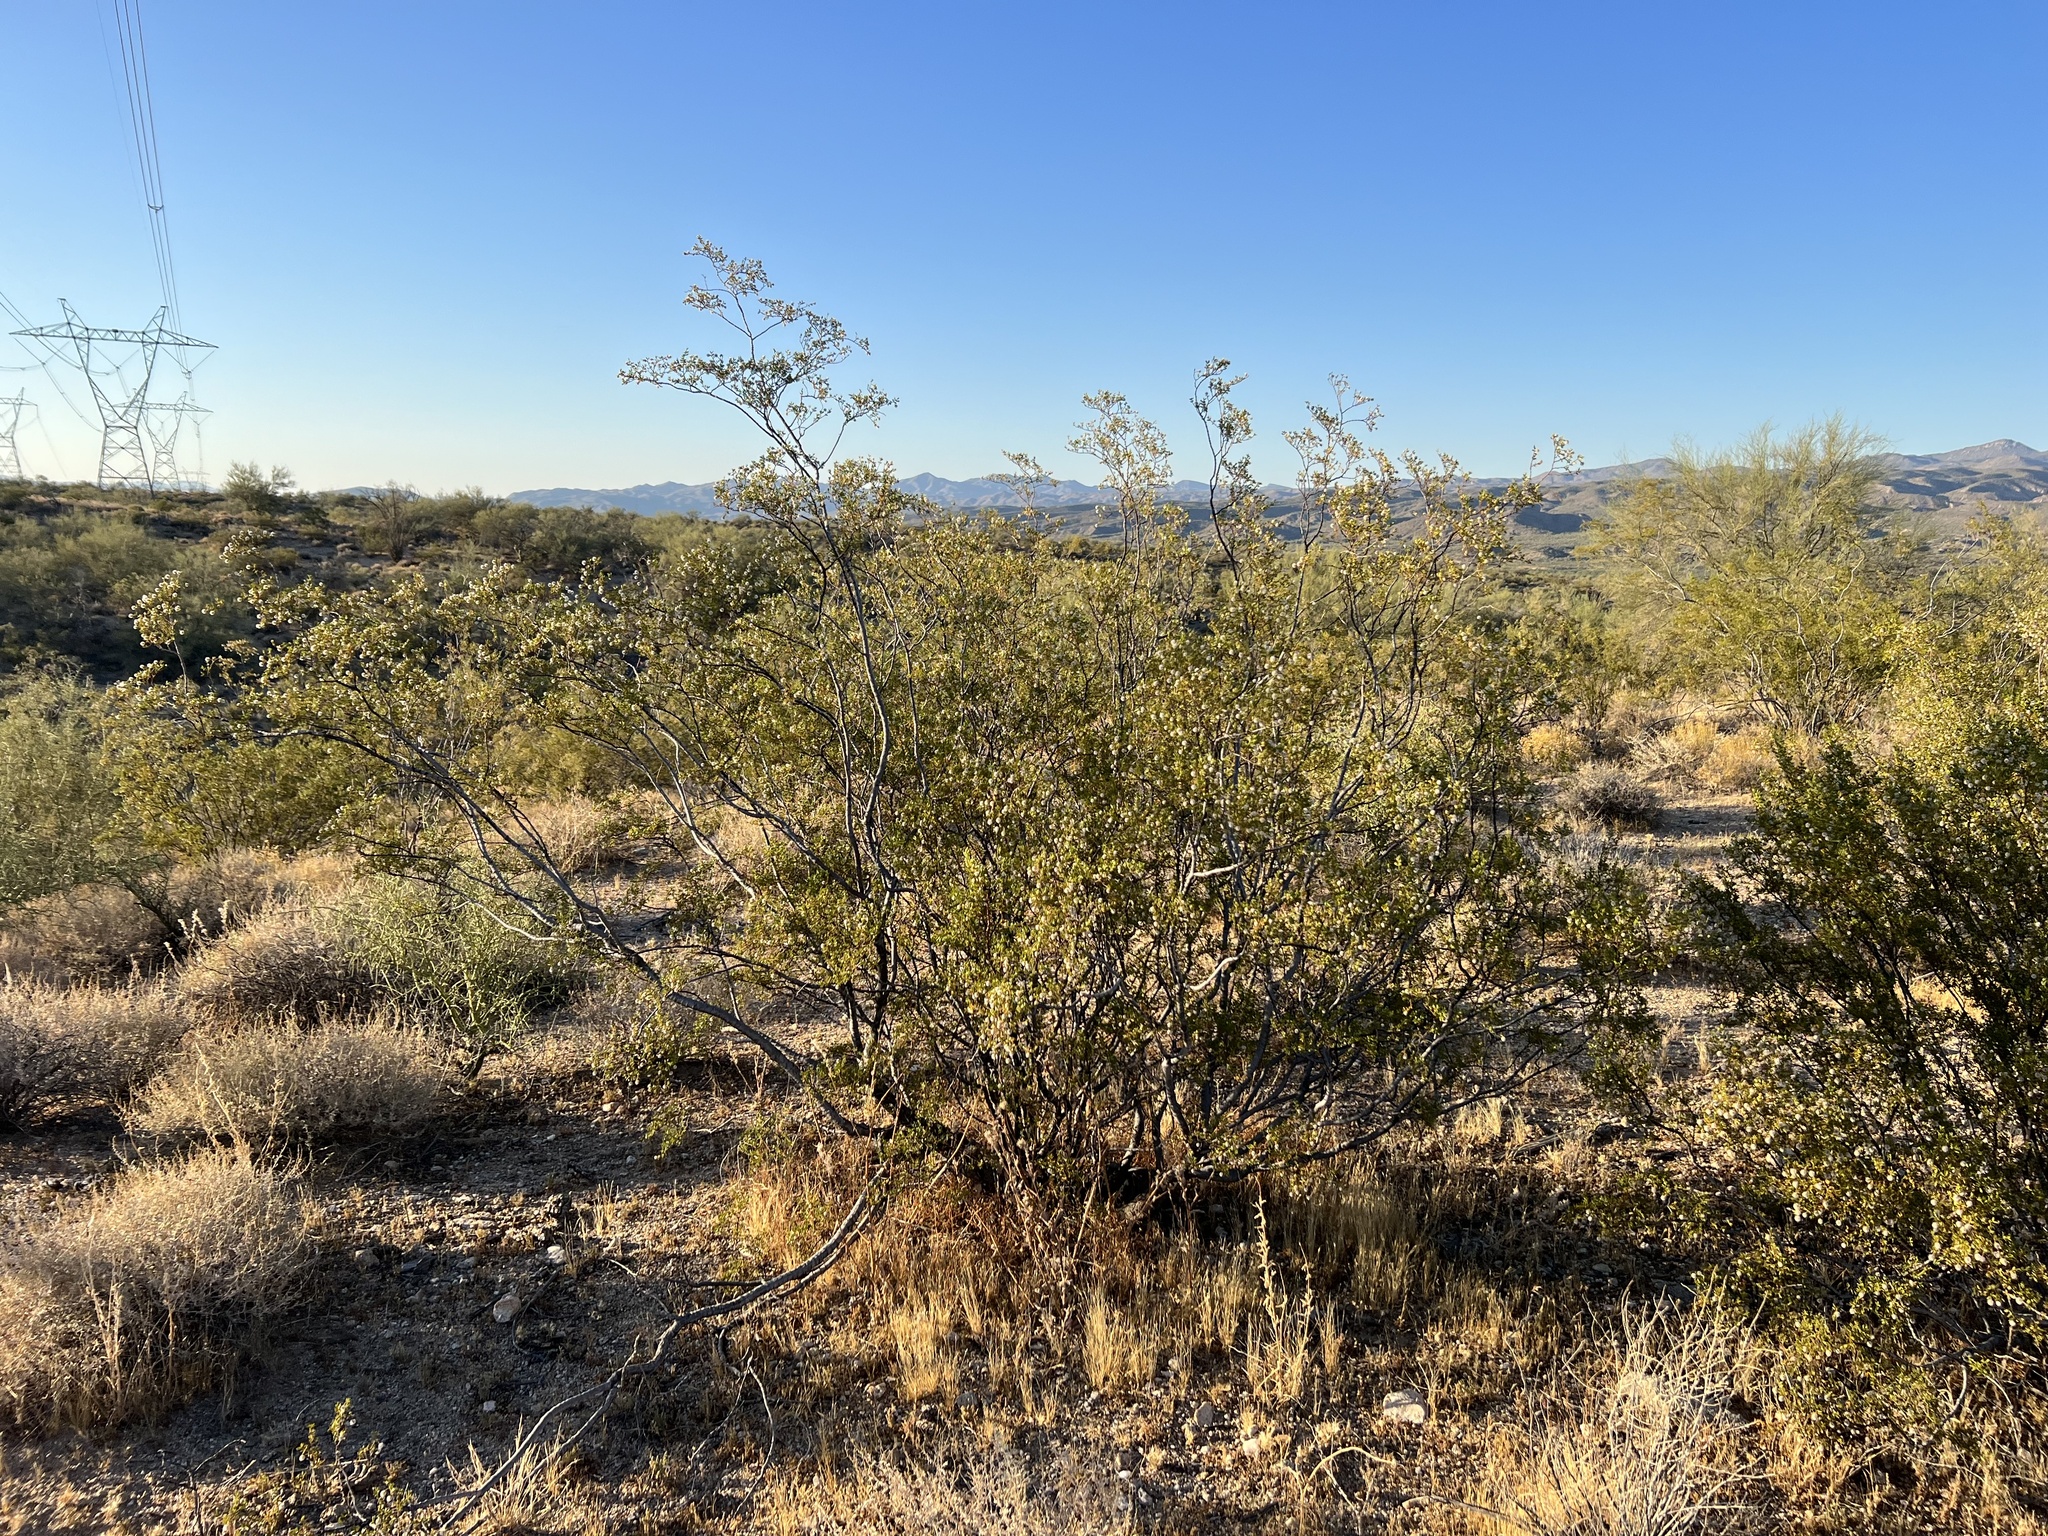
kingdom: Plantae
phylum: Tracheophyta
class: Magnoliopsida
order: Zygophyllales
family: Zygophyllaceae
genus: Larrea
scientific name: Larrea tridentata
